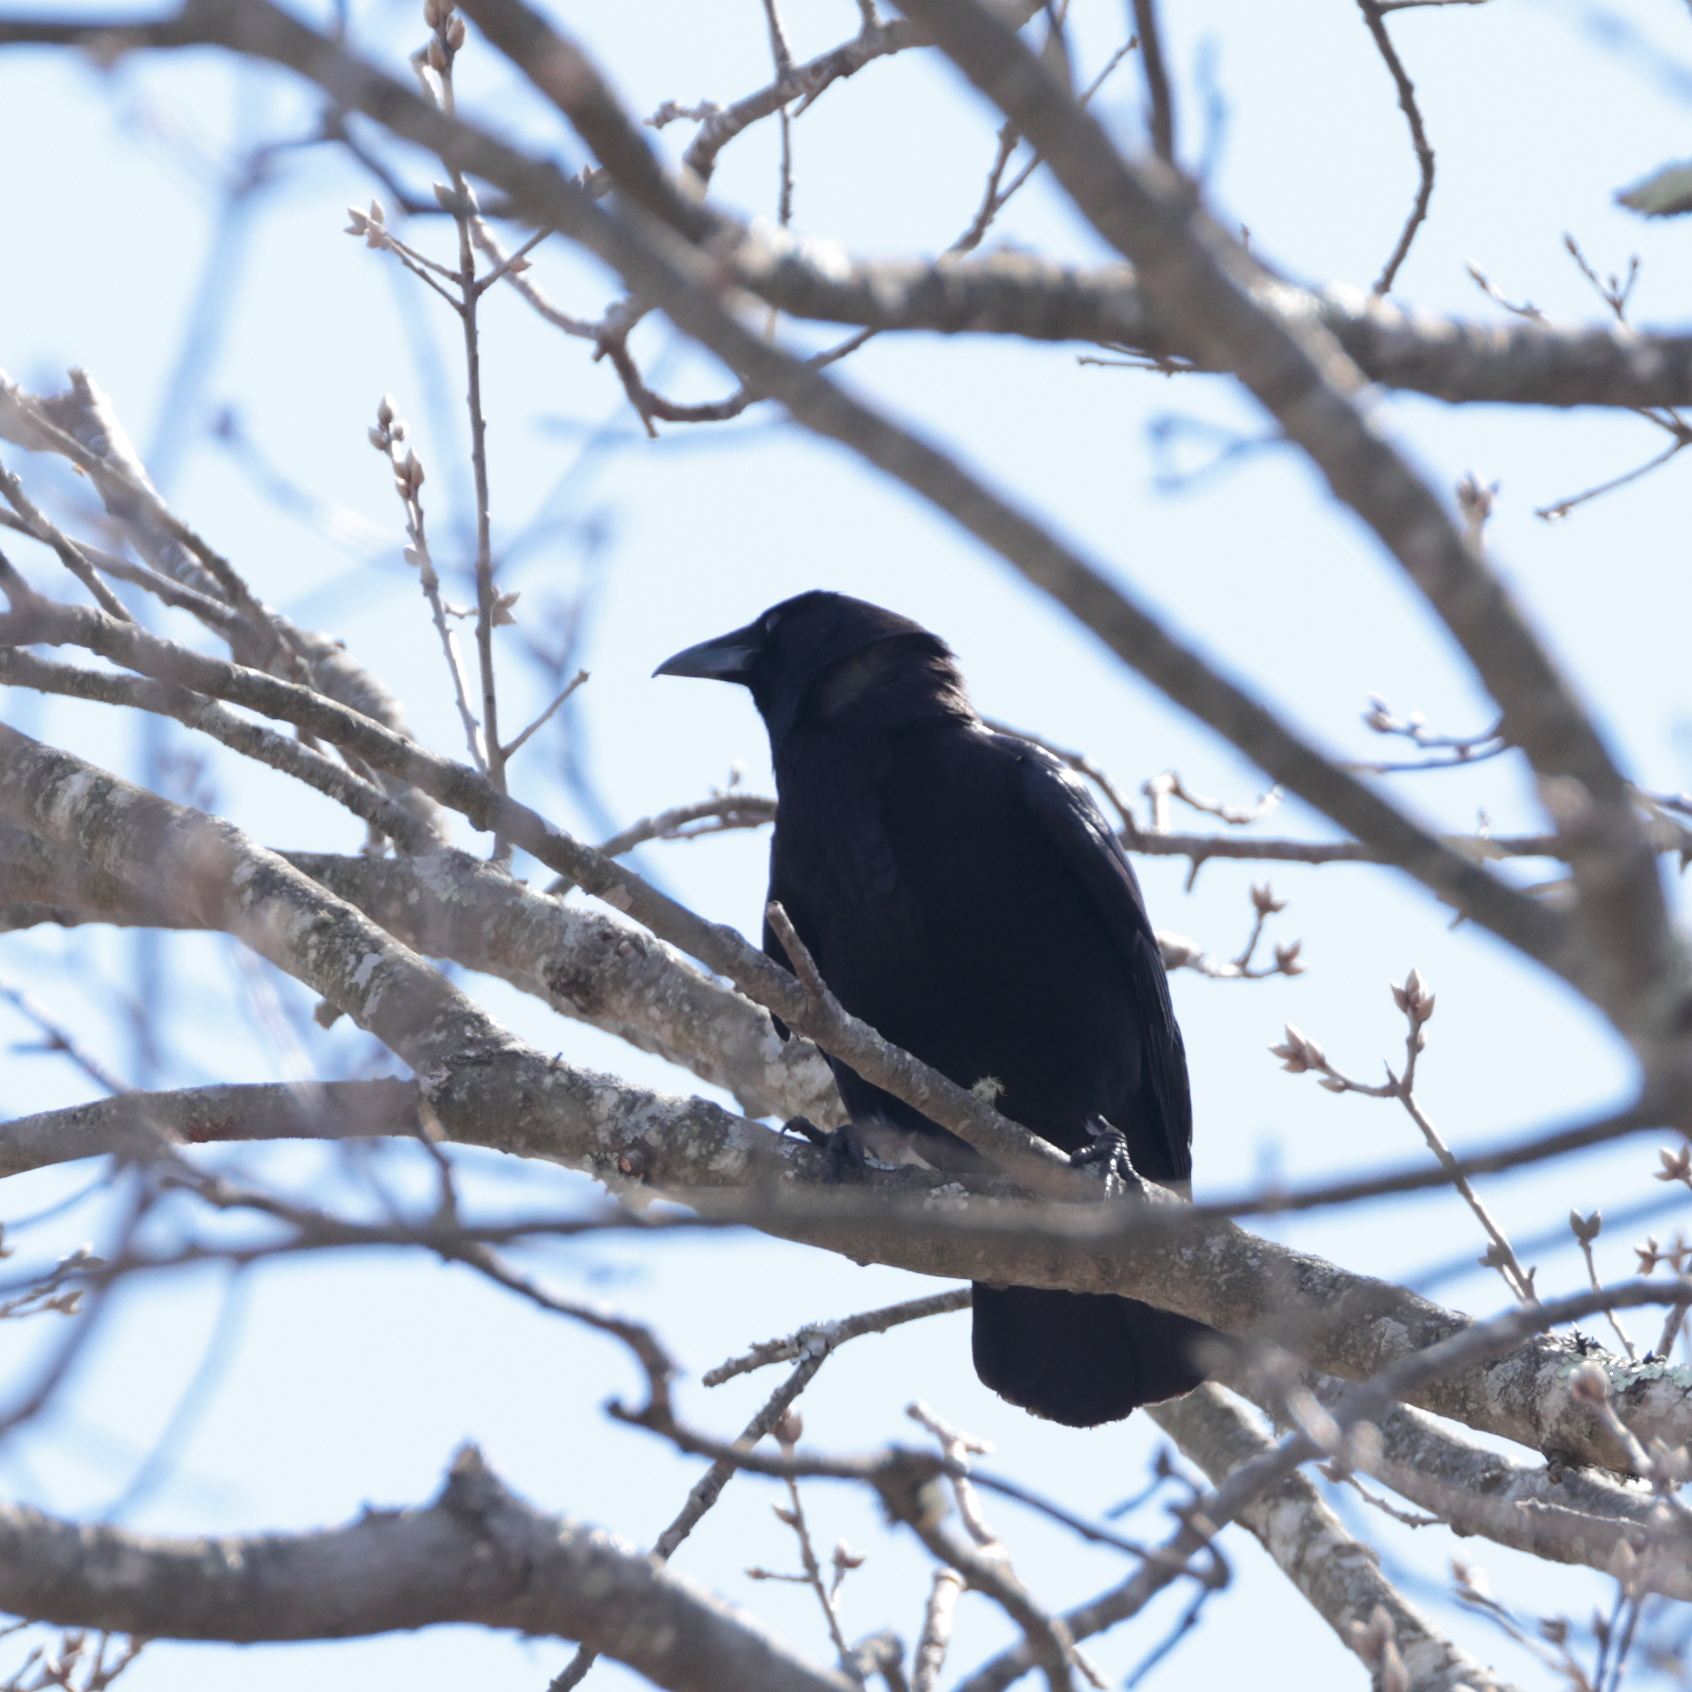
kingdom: Animalia
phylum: Chordata
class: Aves
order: Passeriformes
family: Corvidae
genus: Corvus
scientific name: Corvus brachyrhynchos
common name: American crow
